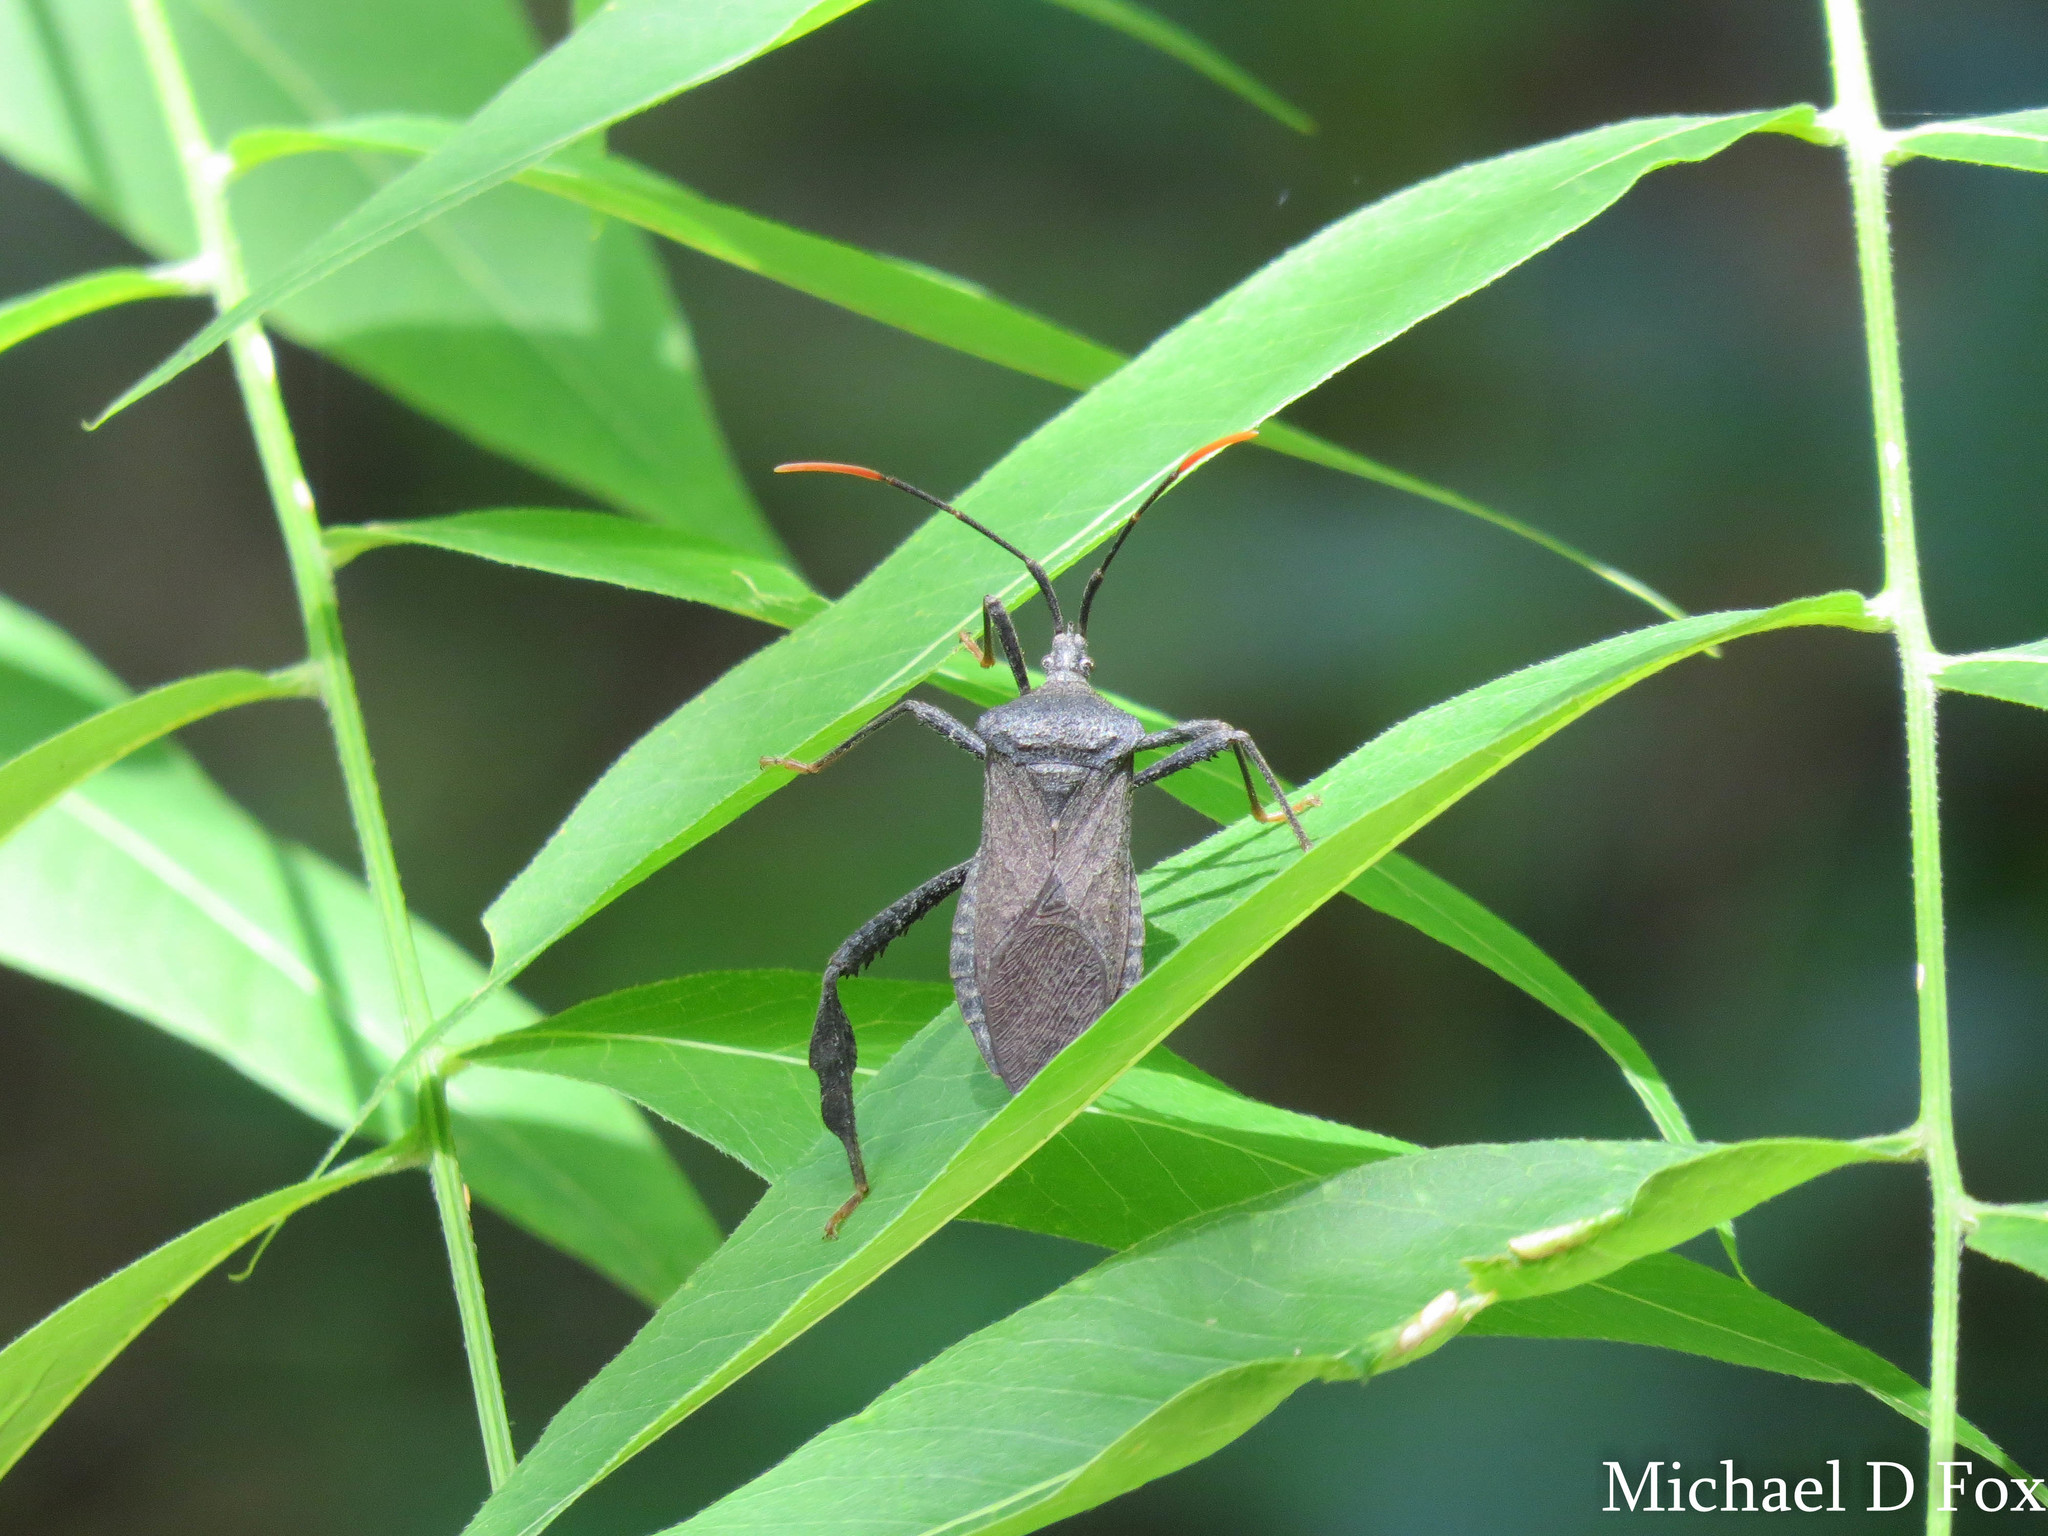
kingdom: Animalia
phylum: Arthropoda
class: Insecta
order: Hemiptera
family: Coreidae
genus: Acanthocephala
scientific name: Acanthocephala terminalis
